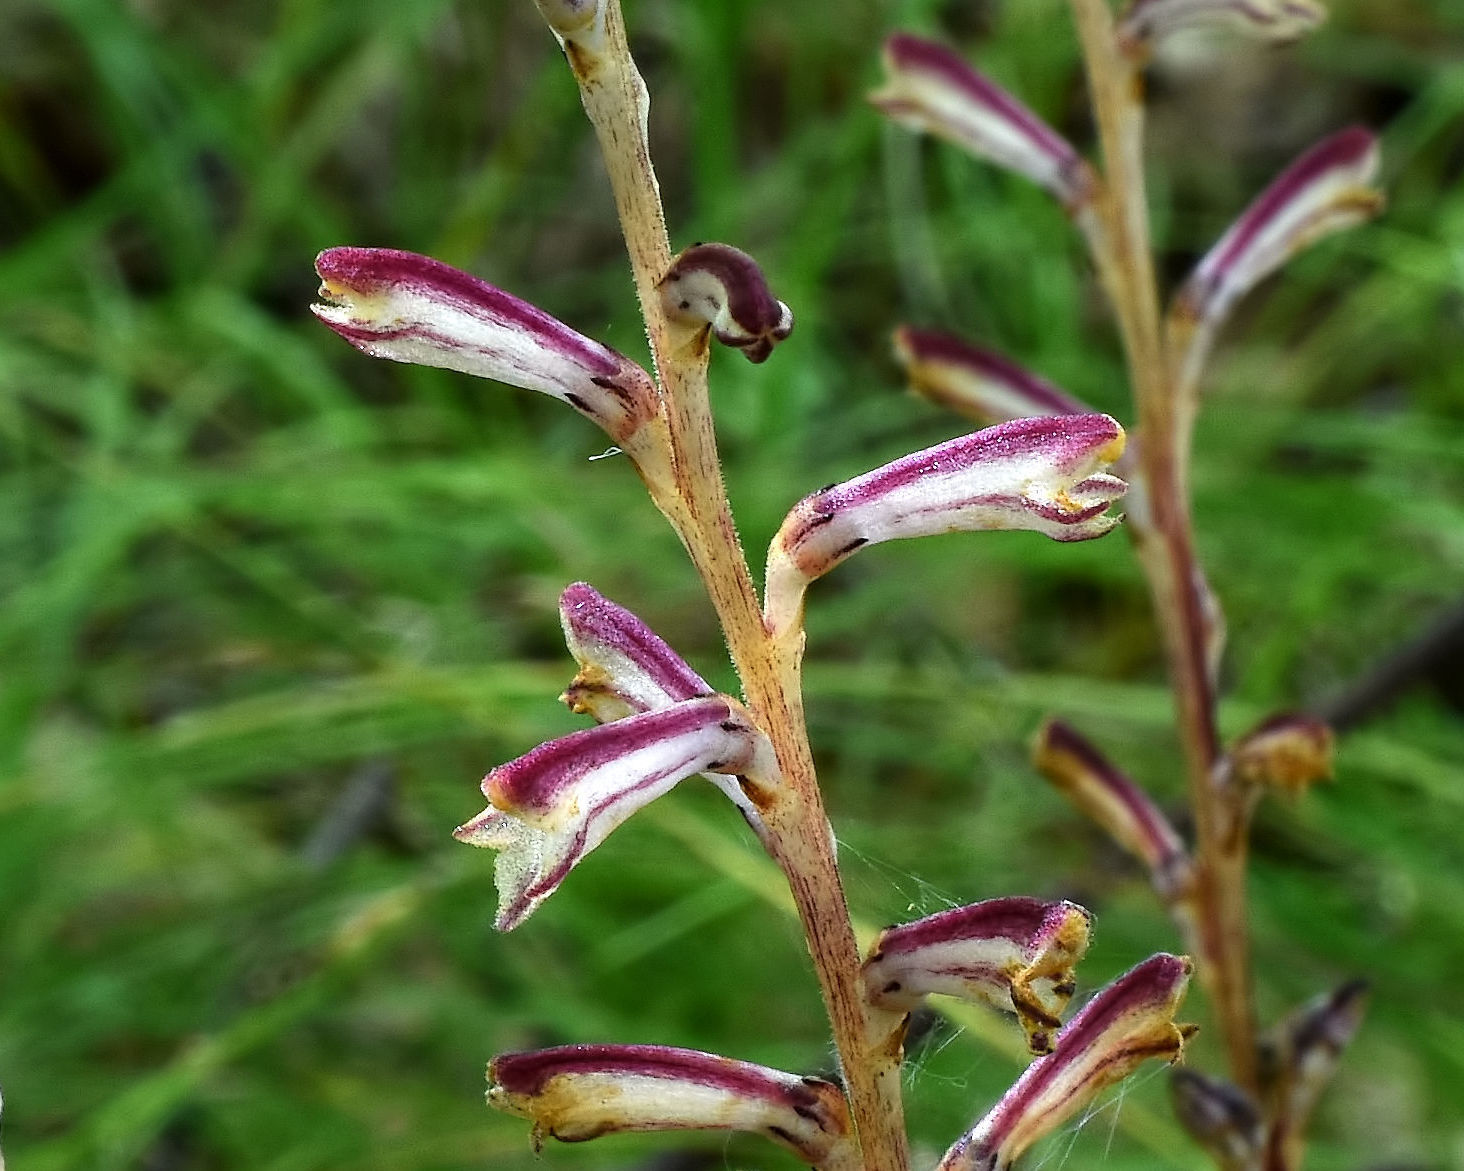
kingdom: Plantae
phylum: Tracheophyta
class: Magnoliopsida
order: Lamiales
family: Orobanchaceae
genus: Epifagus
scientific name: Epifagus virginiana
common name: Beechdrops
